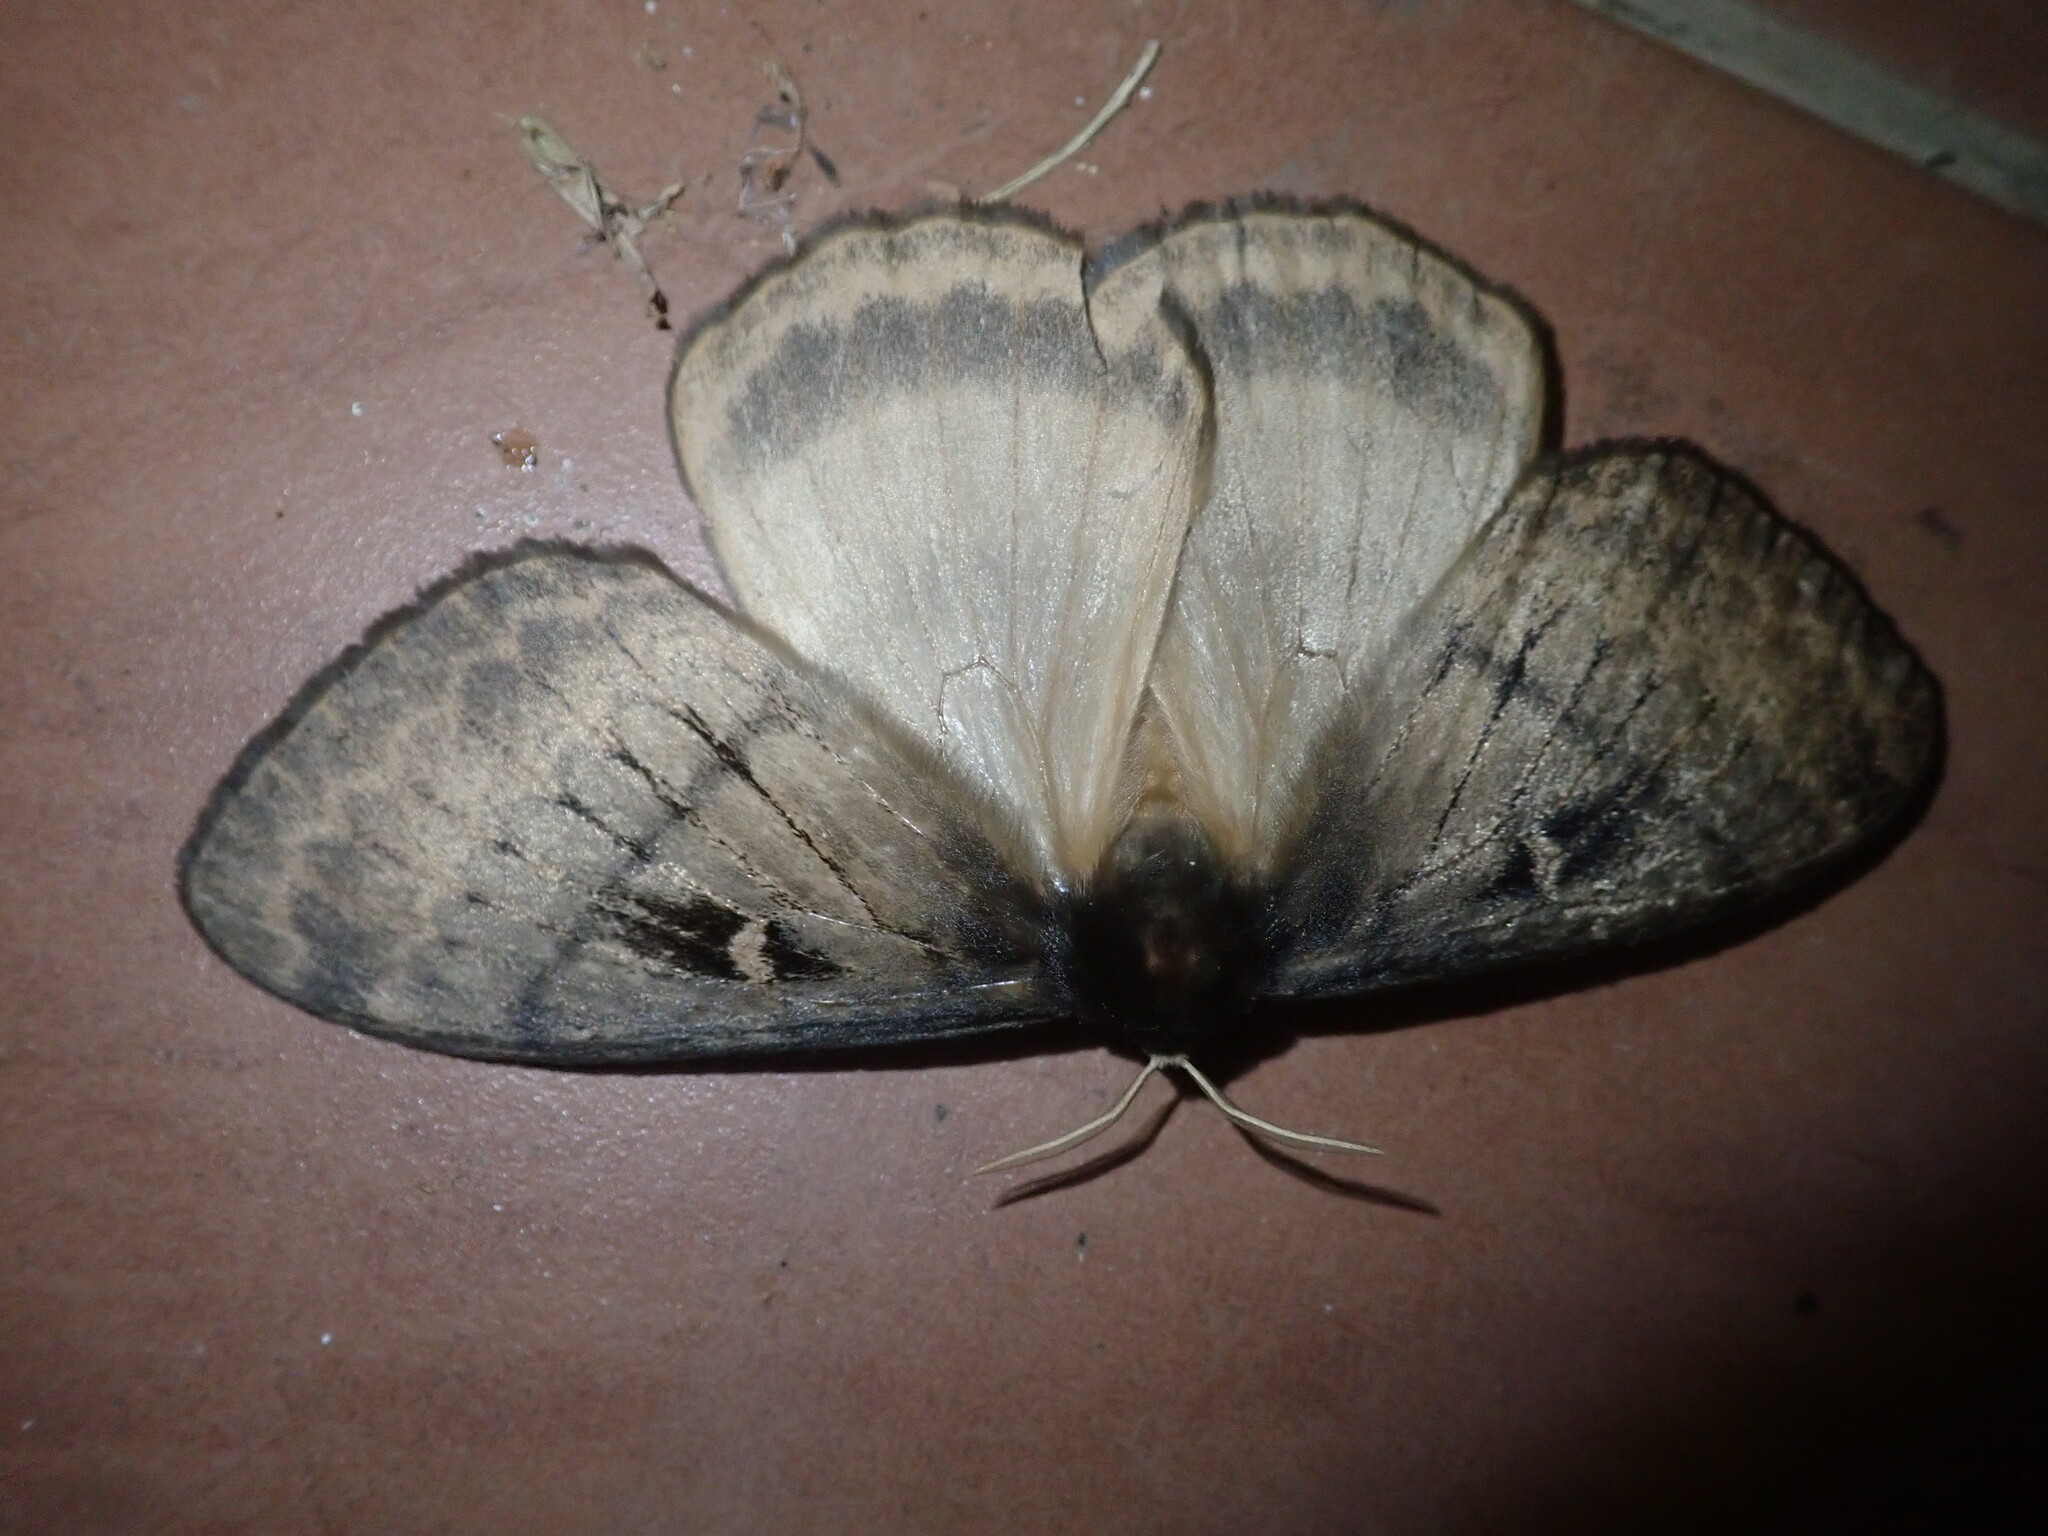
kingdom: Animalia
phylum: Arthropoda
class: Insecta
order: Lepidoptera
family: Eupterotidae
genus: Jana
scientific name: Jana tantalus
